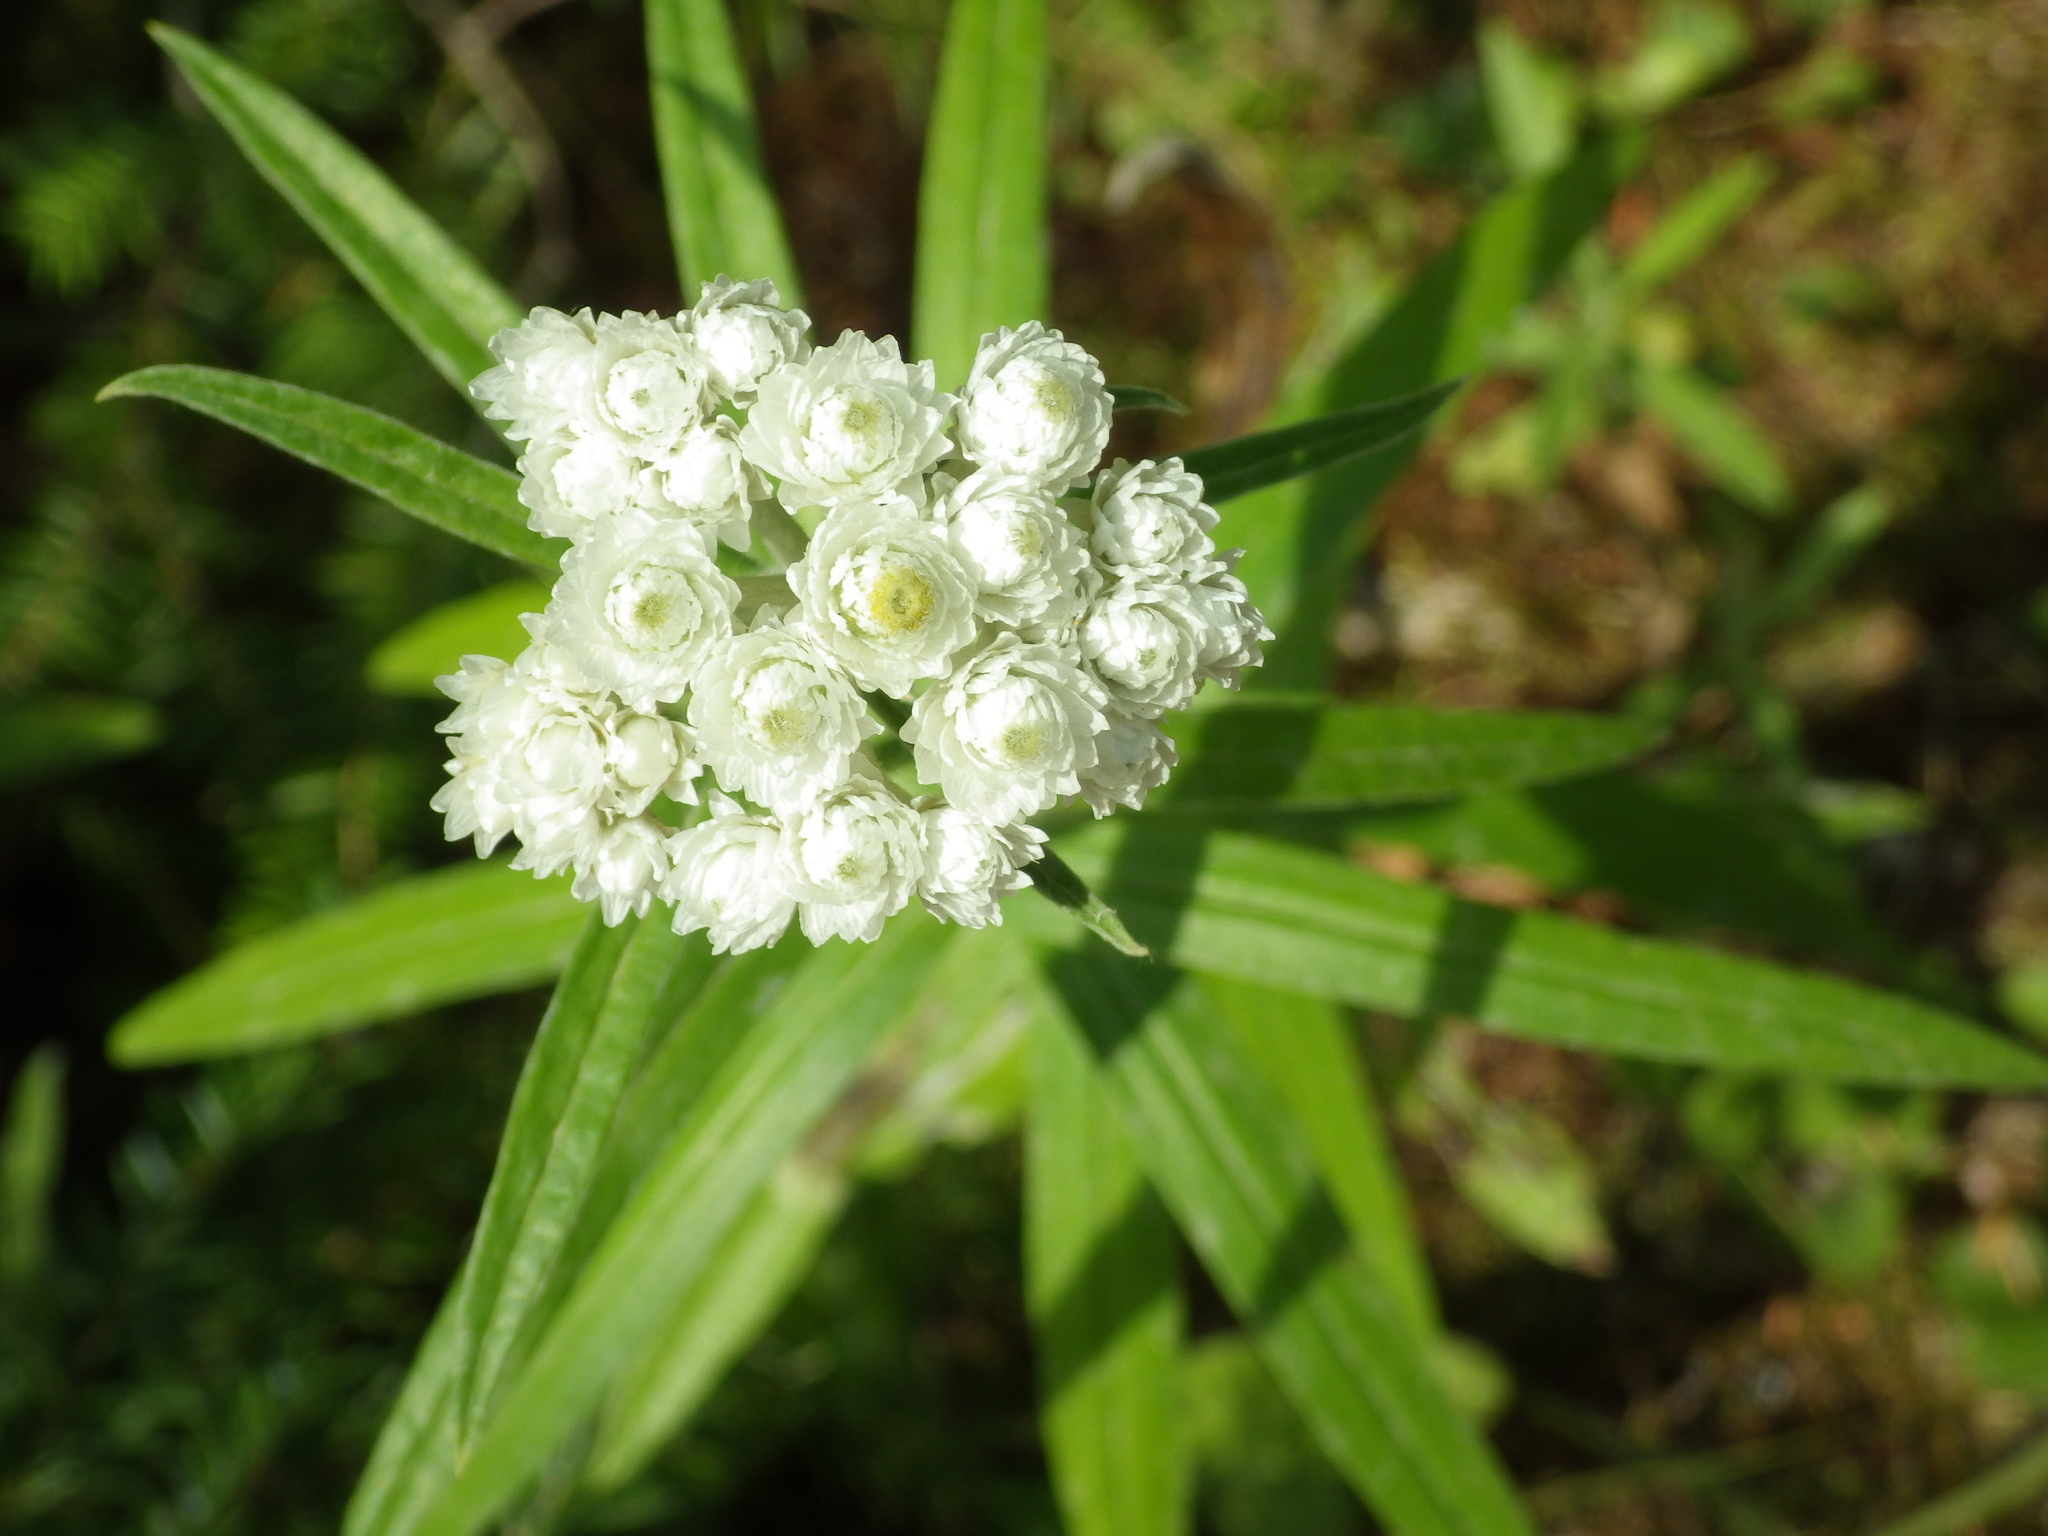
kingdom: Plantae
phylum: Tracheophyta
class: Magnoliopsida
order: Asterales
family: Asteraceae
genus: Anaphalis
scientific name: Anaphalis margaritacea
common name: Pearly everlasting
